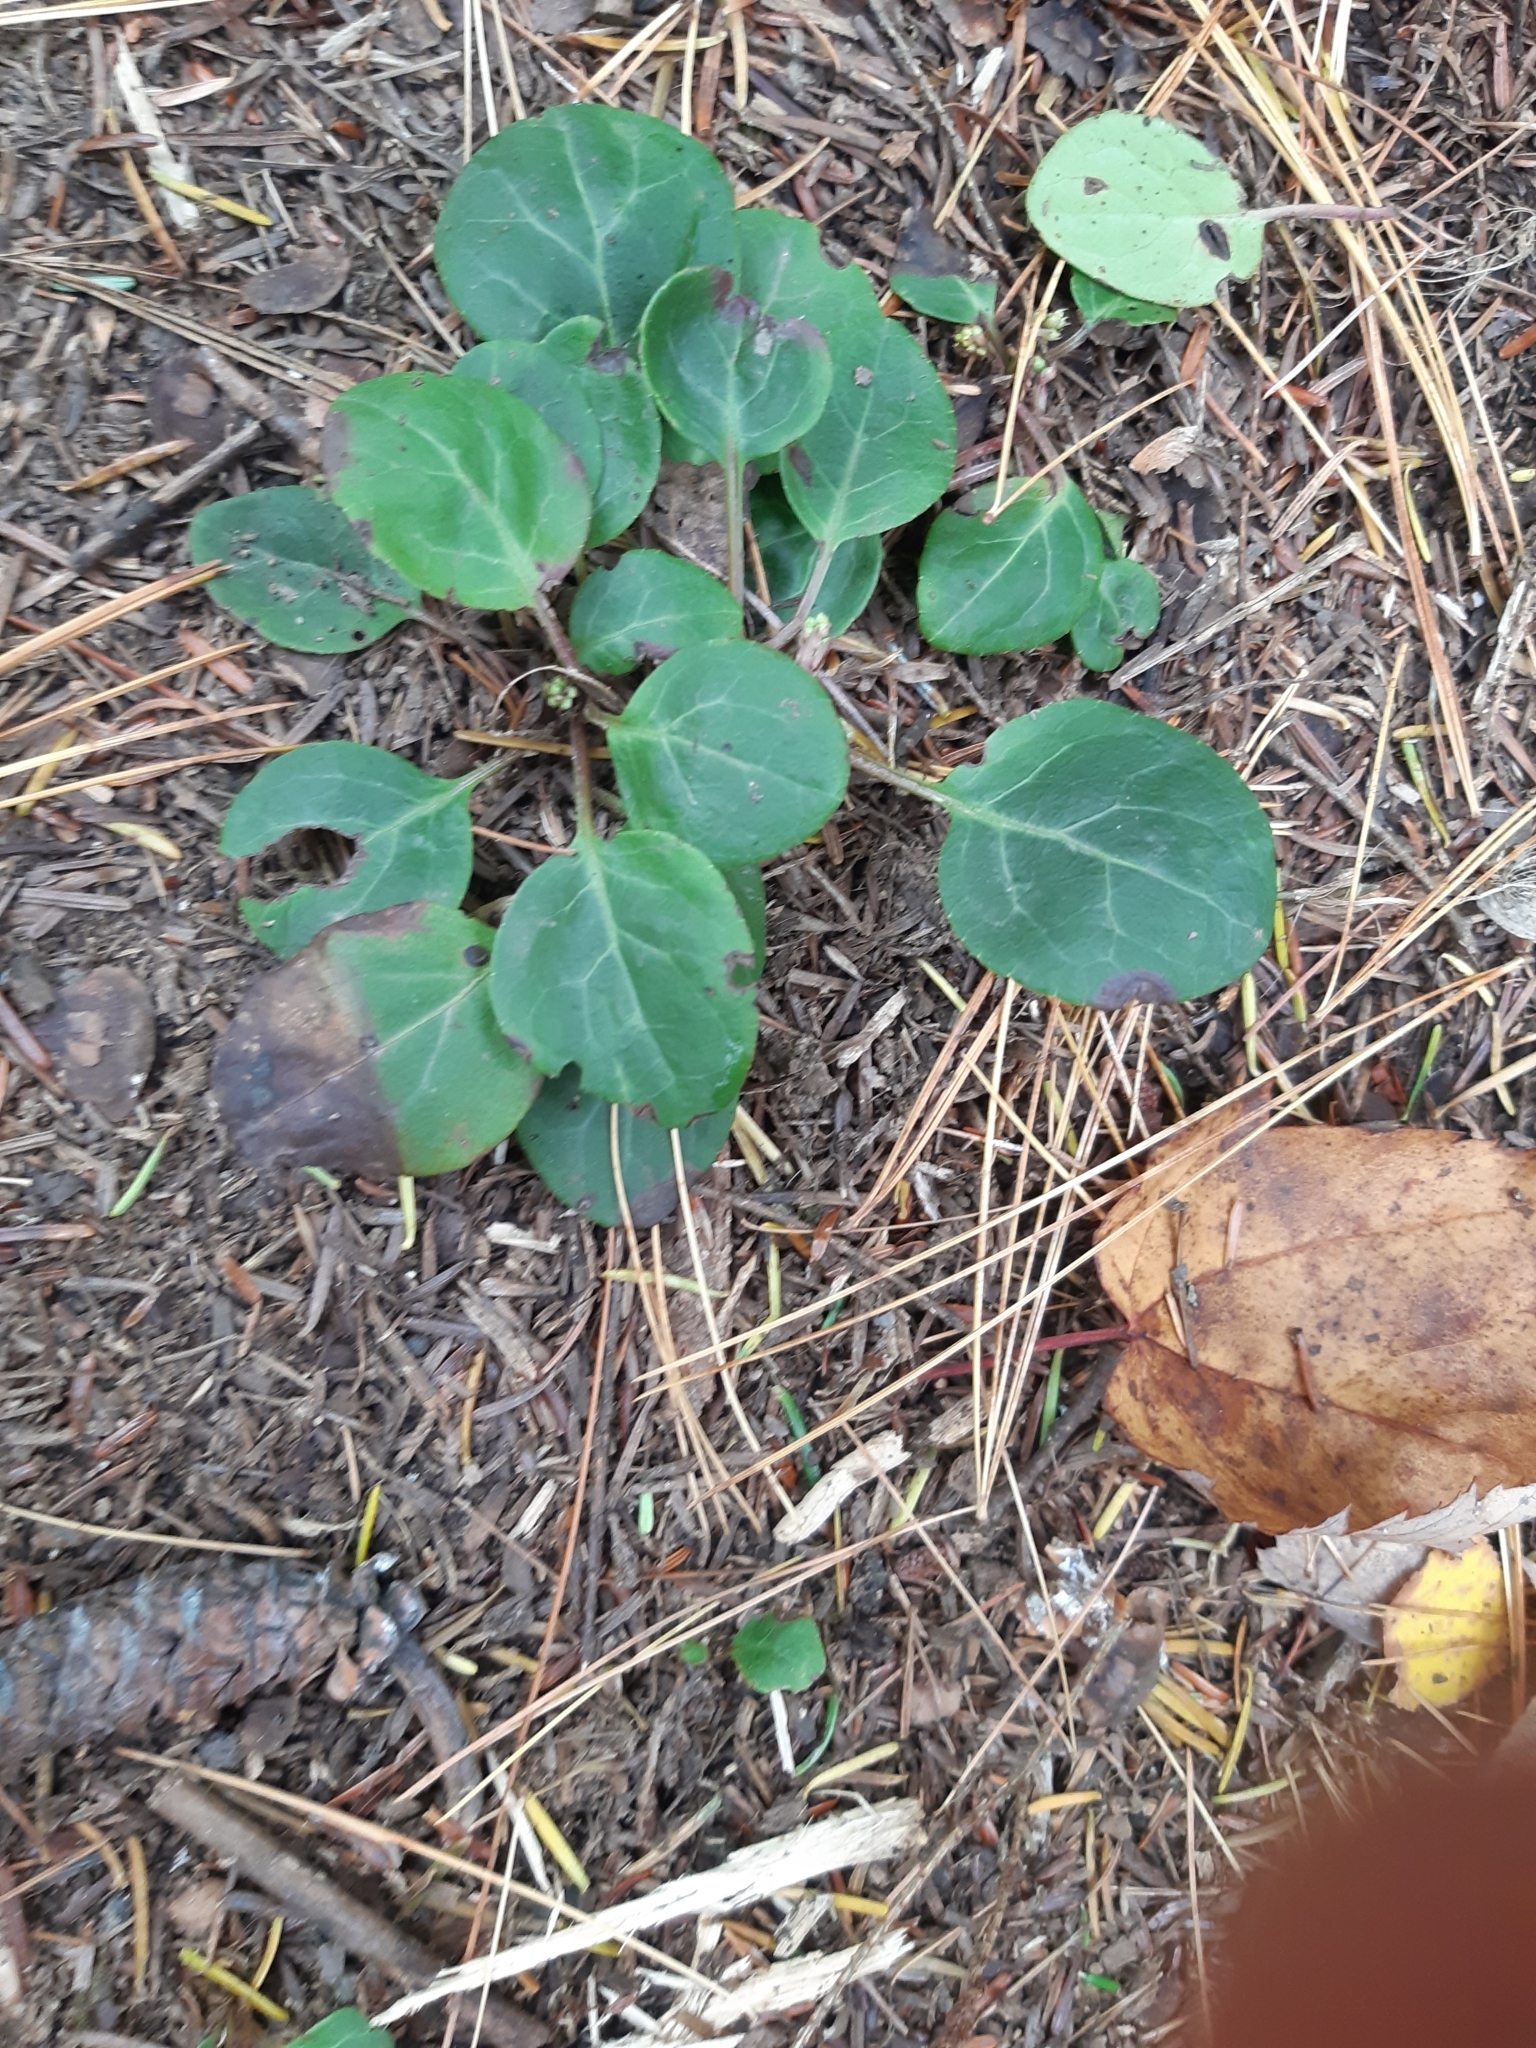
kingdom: Plantae
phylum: Tracheophyta
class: Magnoliopsida
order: Ericales
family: Ericaceae
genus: Pyrola
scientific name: Pyrola chlorantha
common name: Green wintergreen
